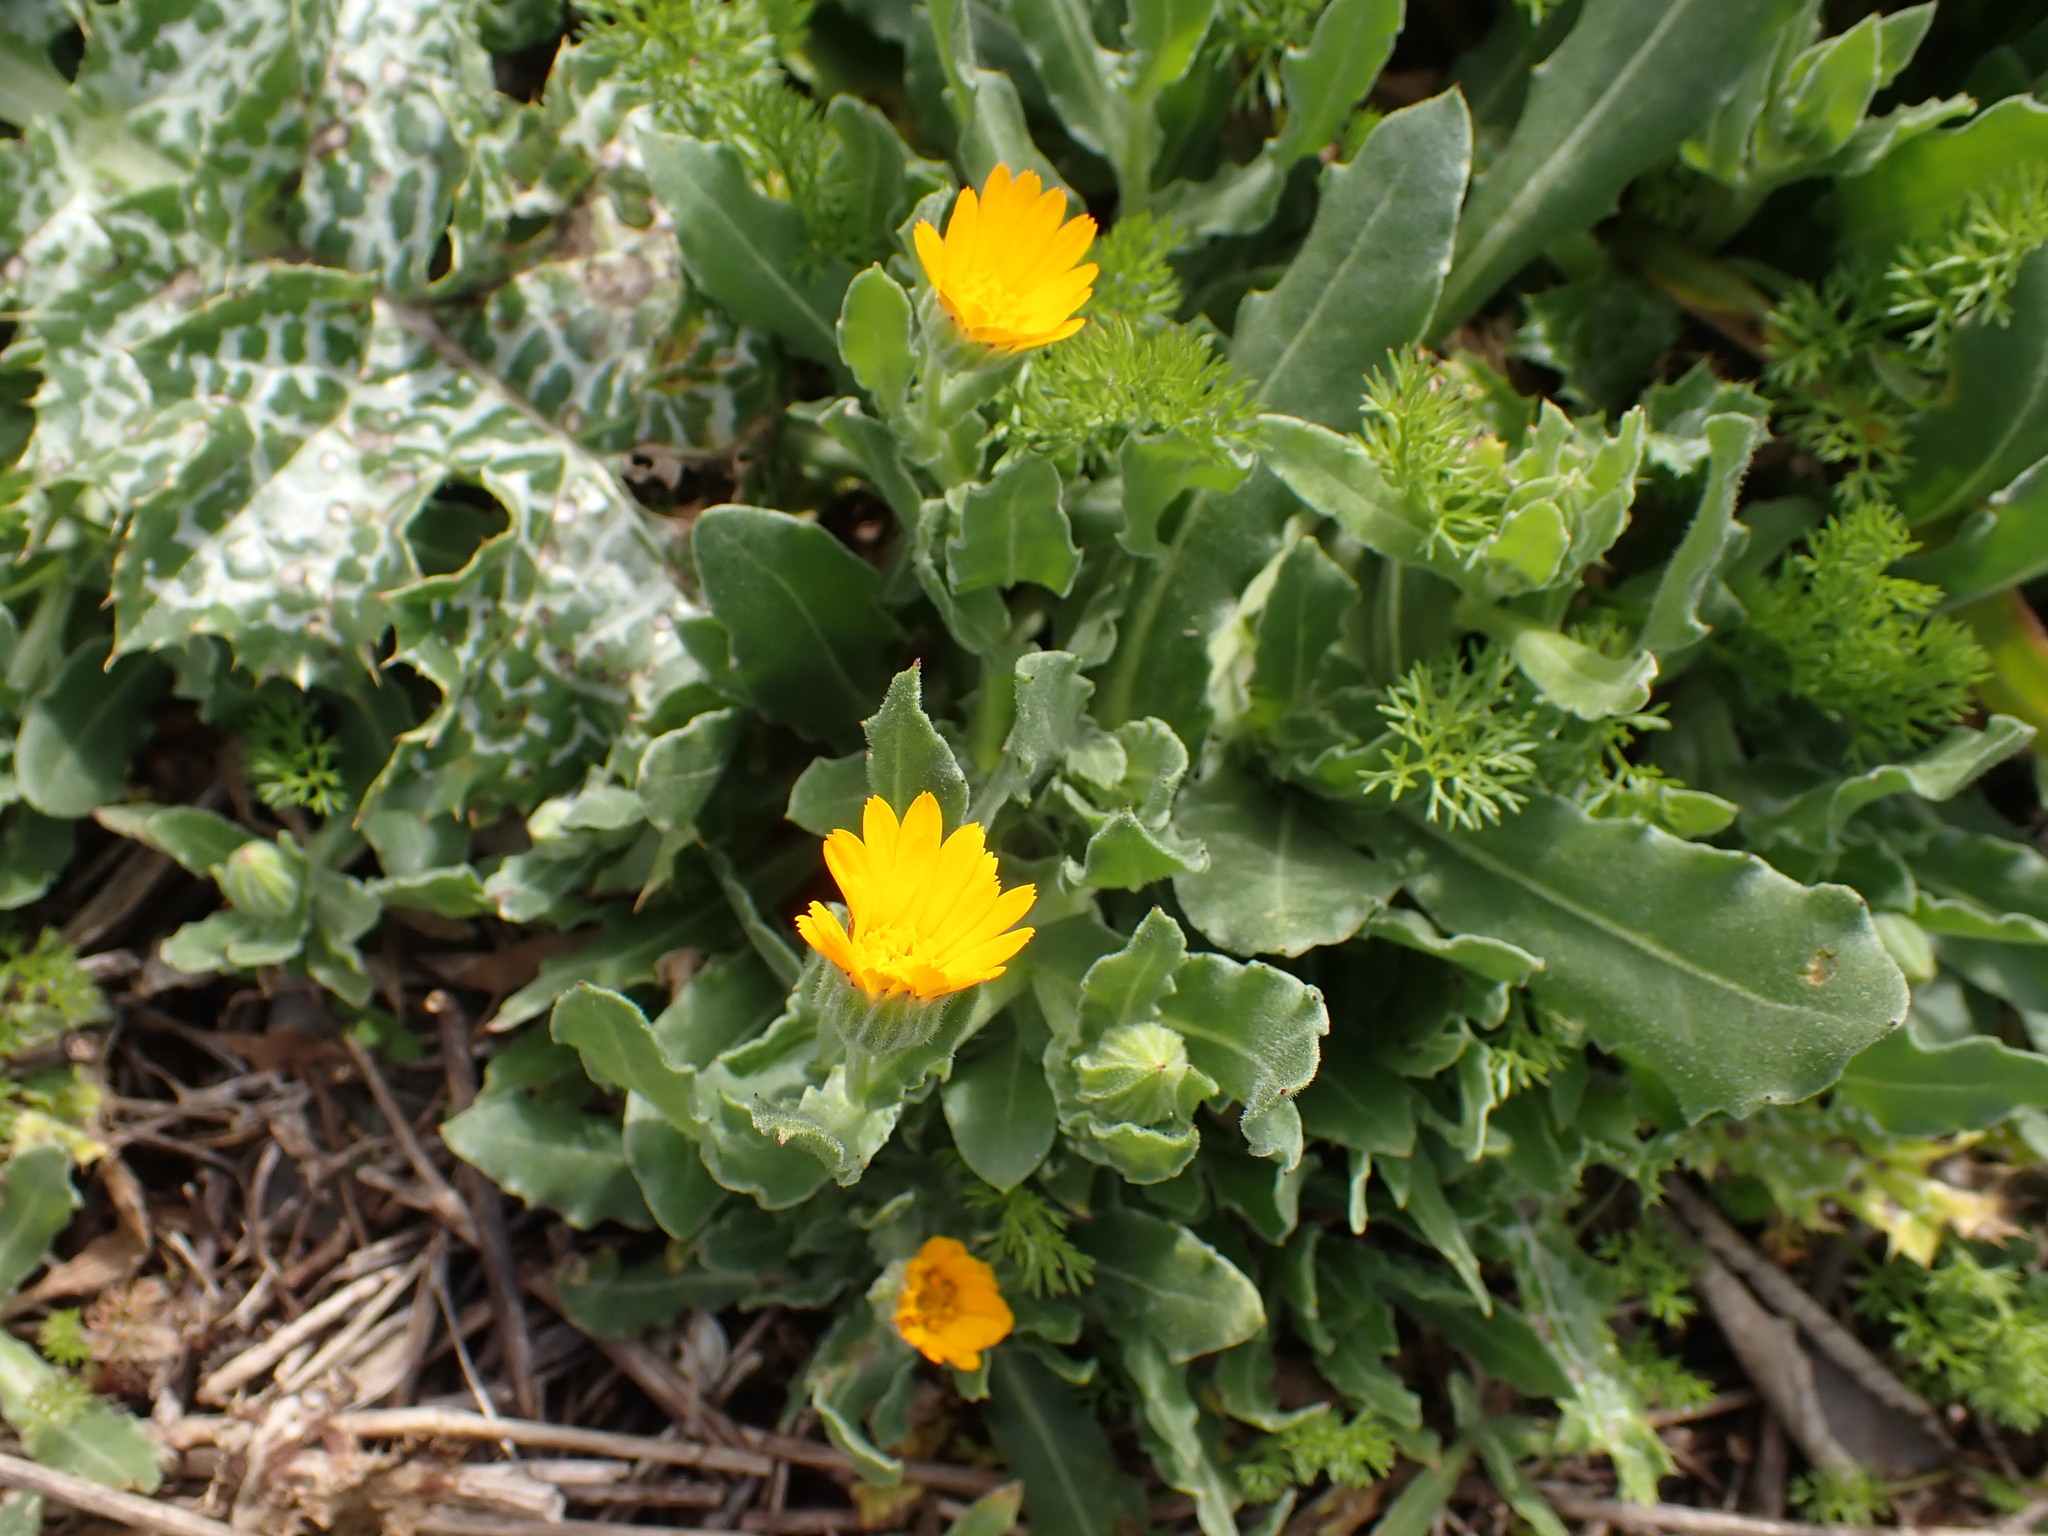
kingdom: Plantae
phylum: Tracheophyta
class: Magnoliopsida
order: Asterales
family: Asteraceae
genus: Calendula
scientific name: Calendula arvensis
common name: Field marigold
